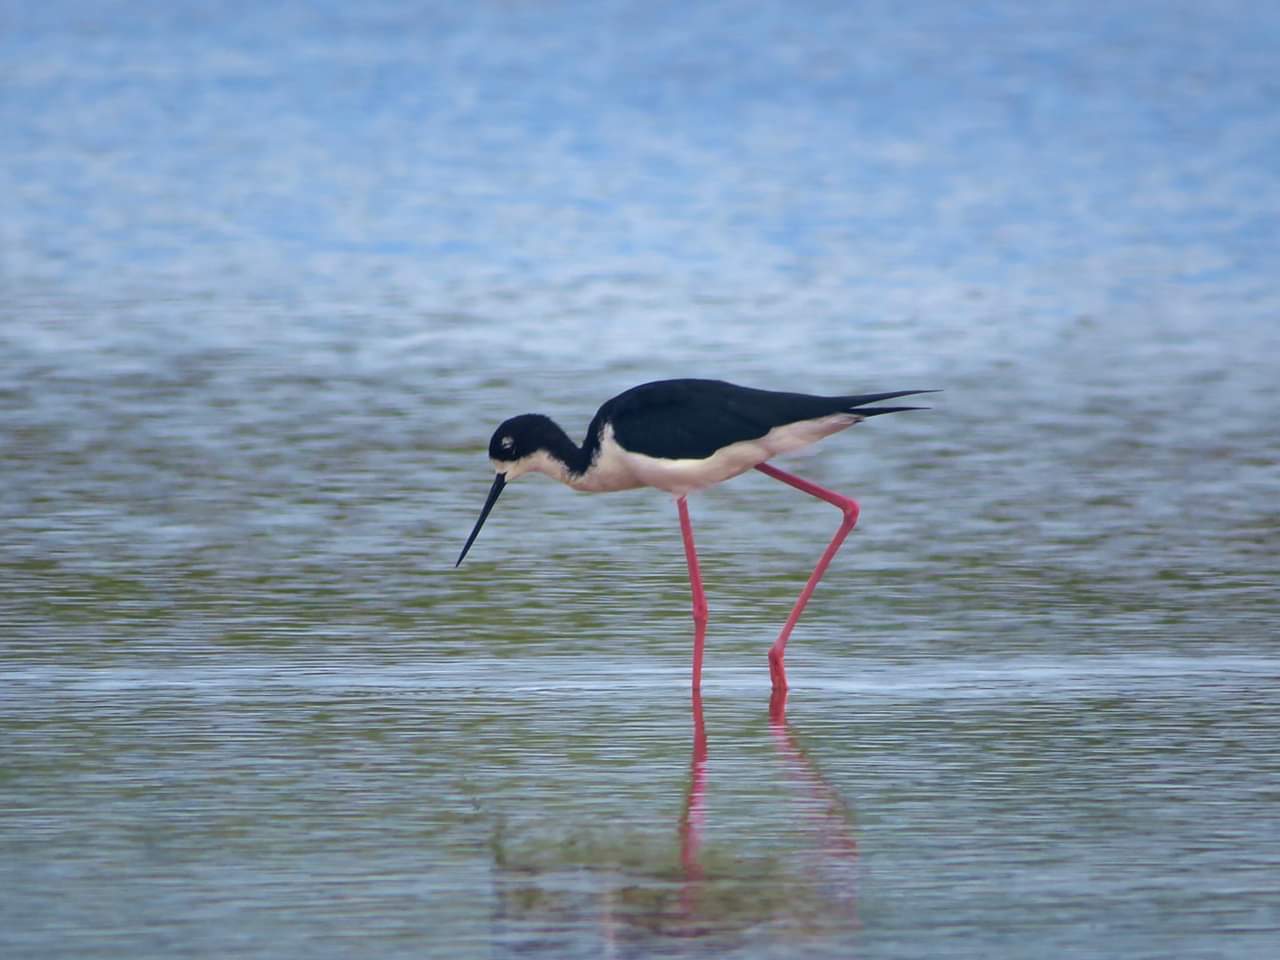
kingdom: Animalia
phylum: Chordata
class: Aves
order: Charadriiformes
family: Recurvirostridae
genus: Himantopus
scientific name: Himantopus mexicanus
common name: Black-necked stilt
